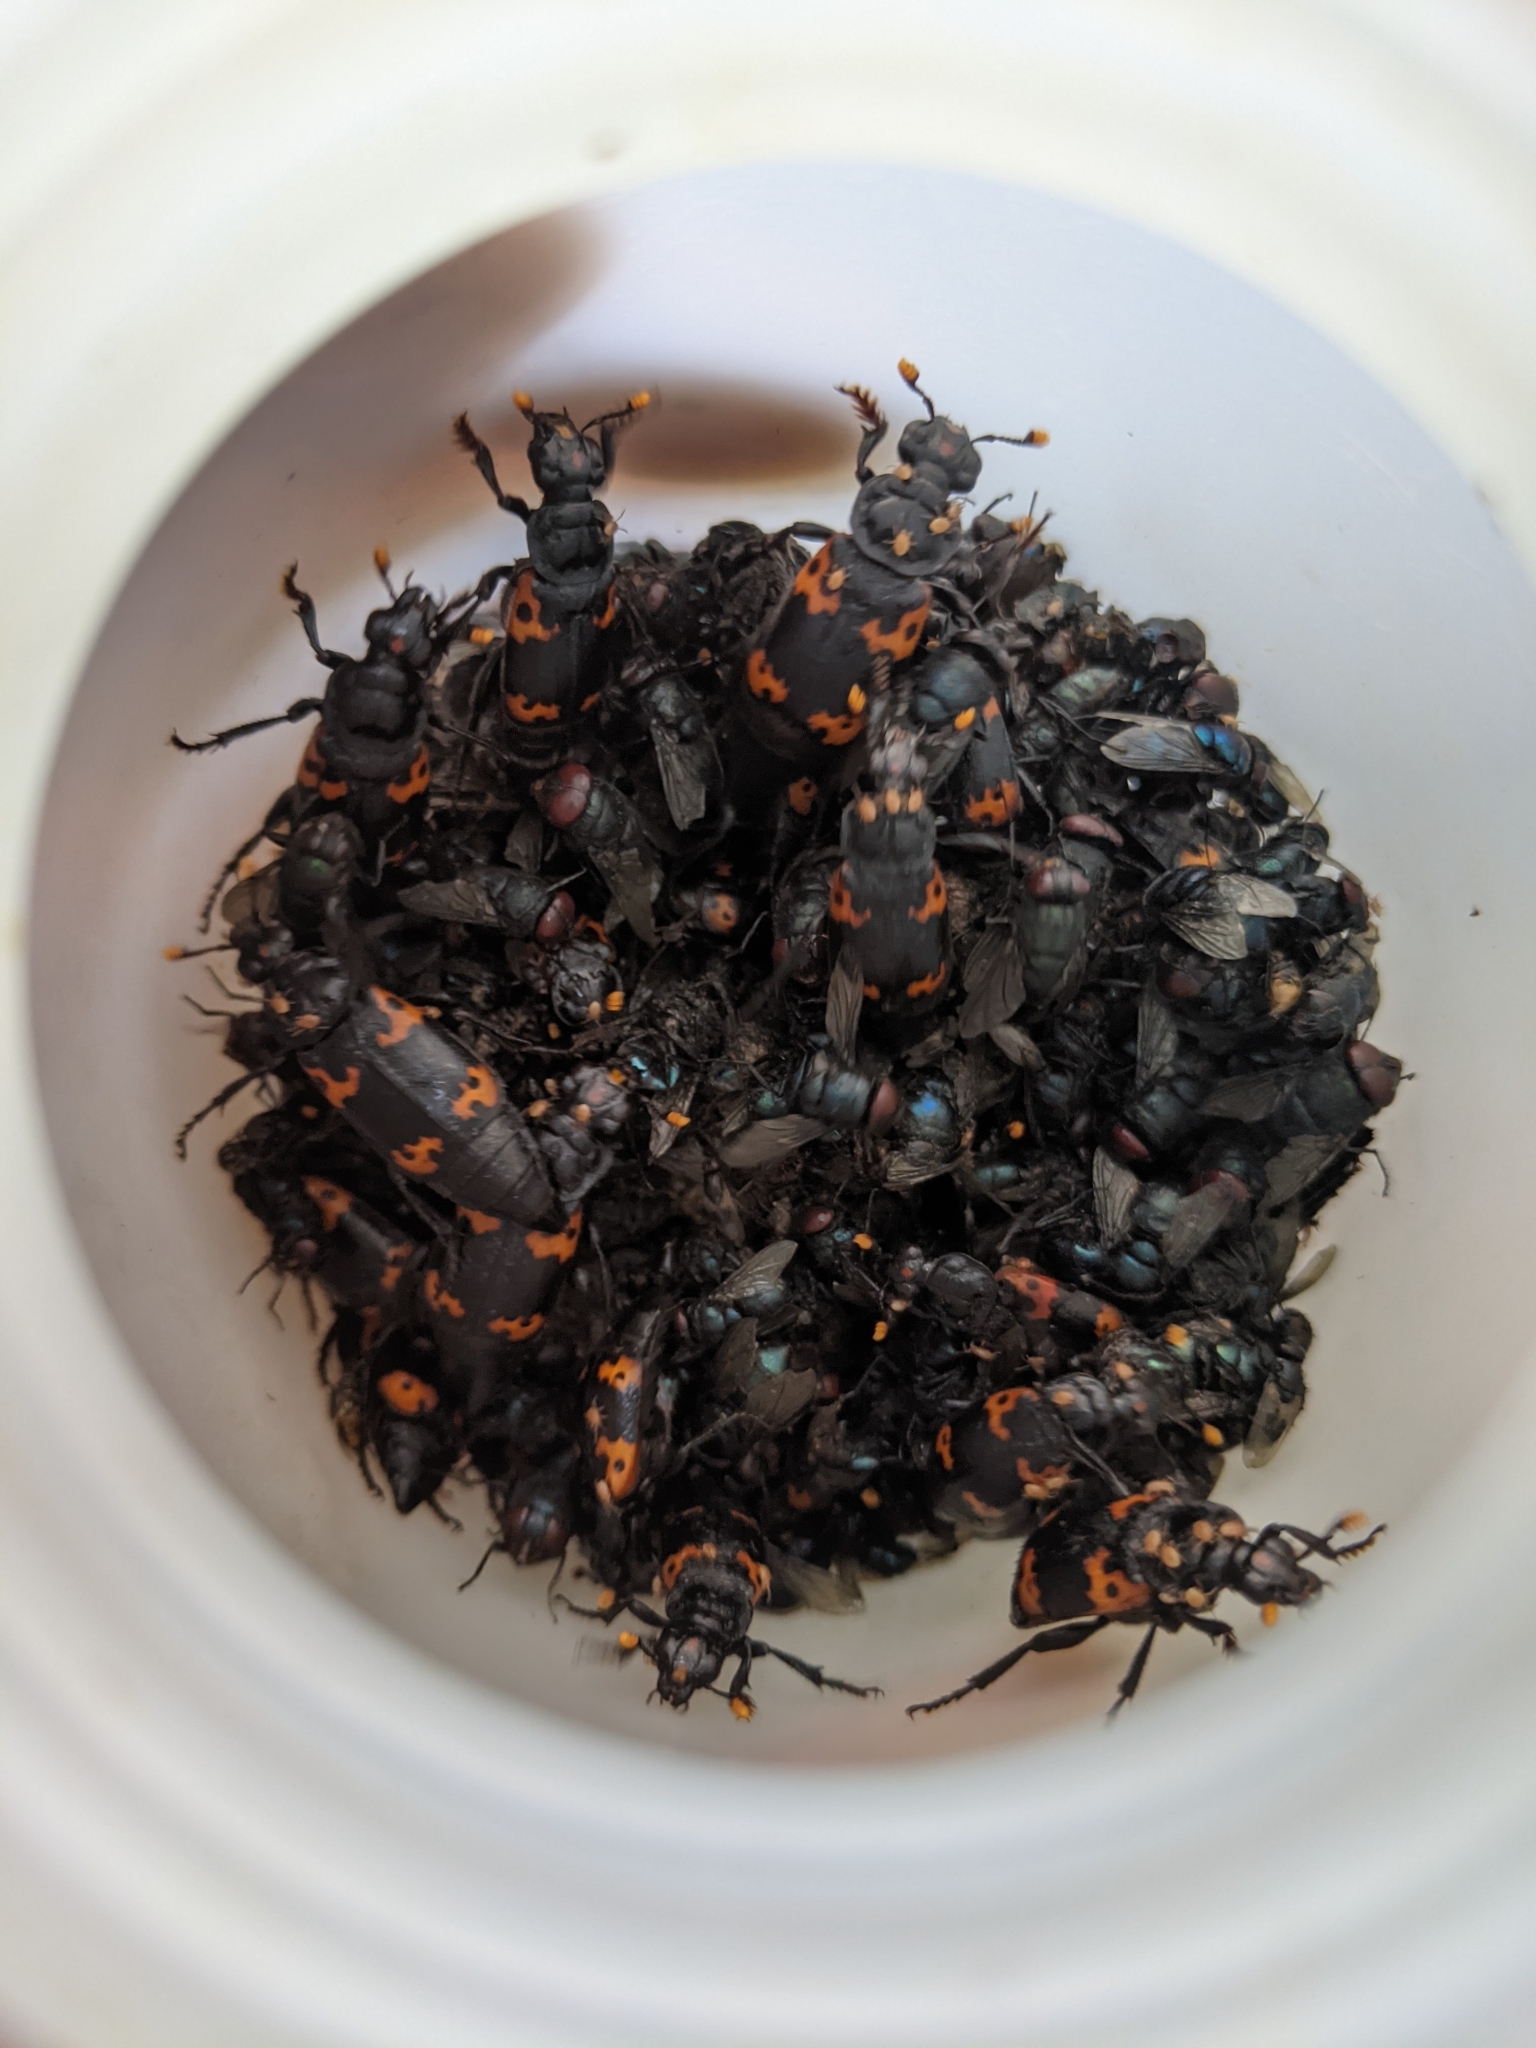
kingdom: Animalia
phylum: Arthropoda
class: Insecta
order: Coleoptera
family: Staphylinidae
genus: Nicrophorus
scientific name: Nicrophorus nepalensis
